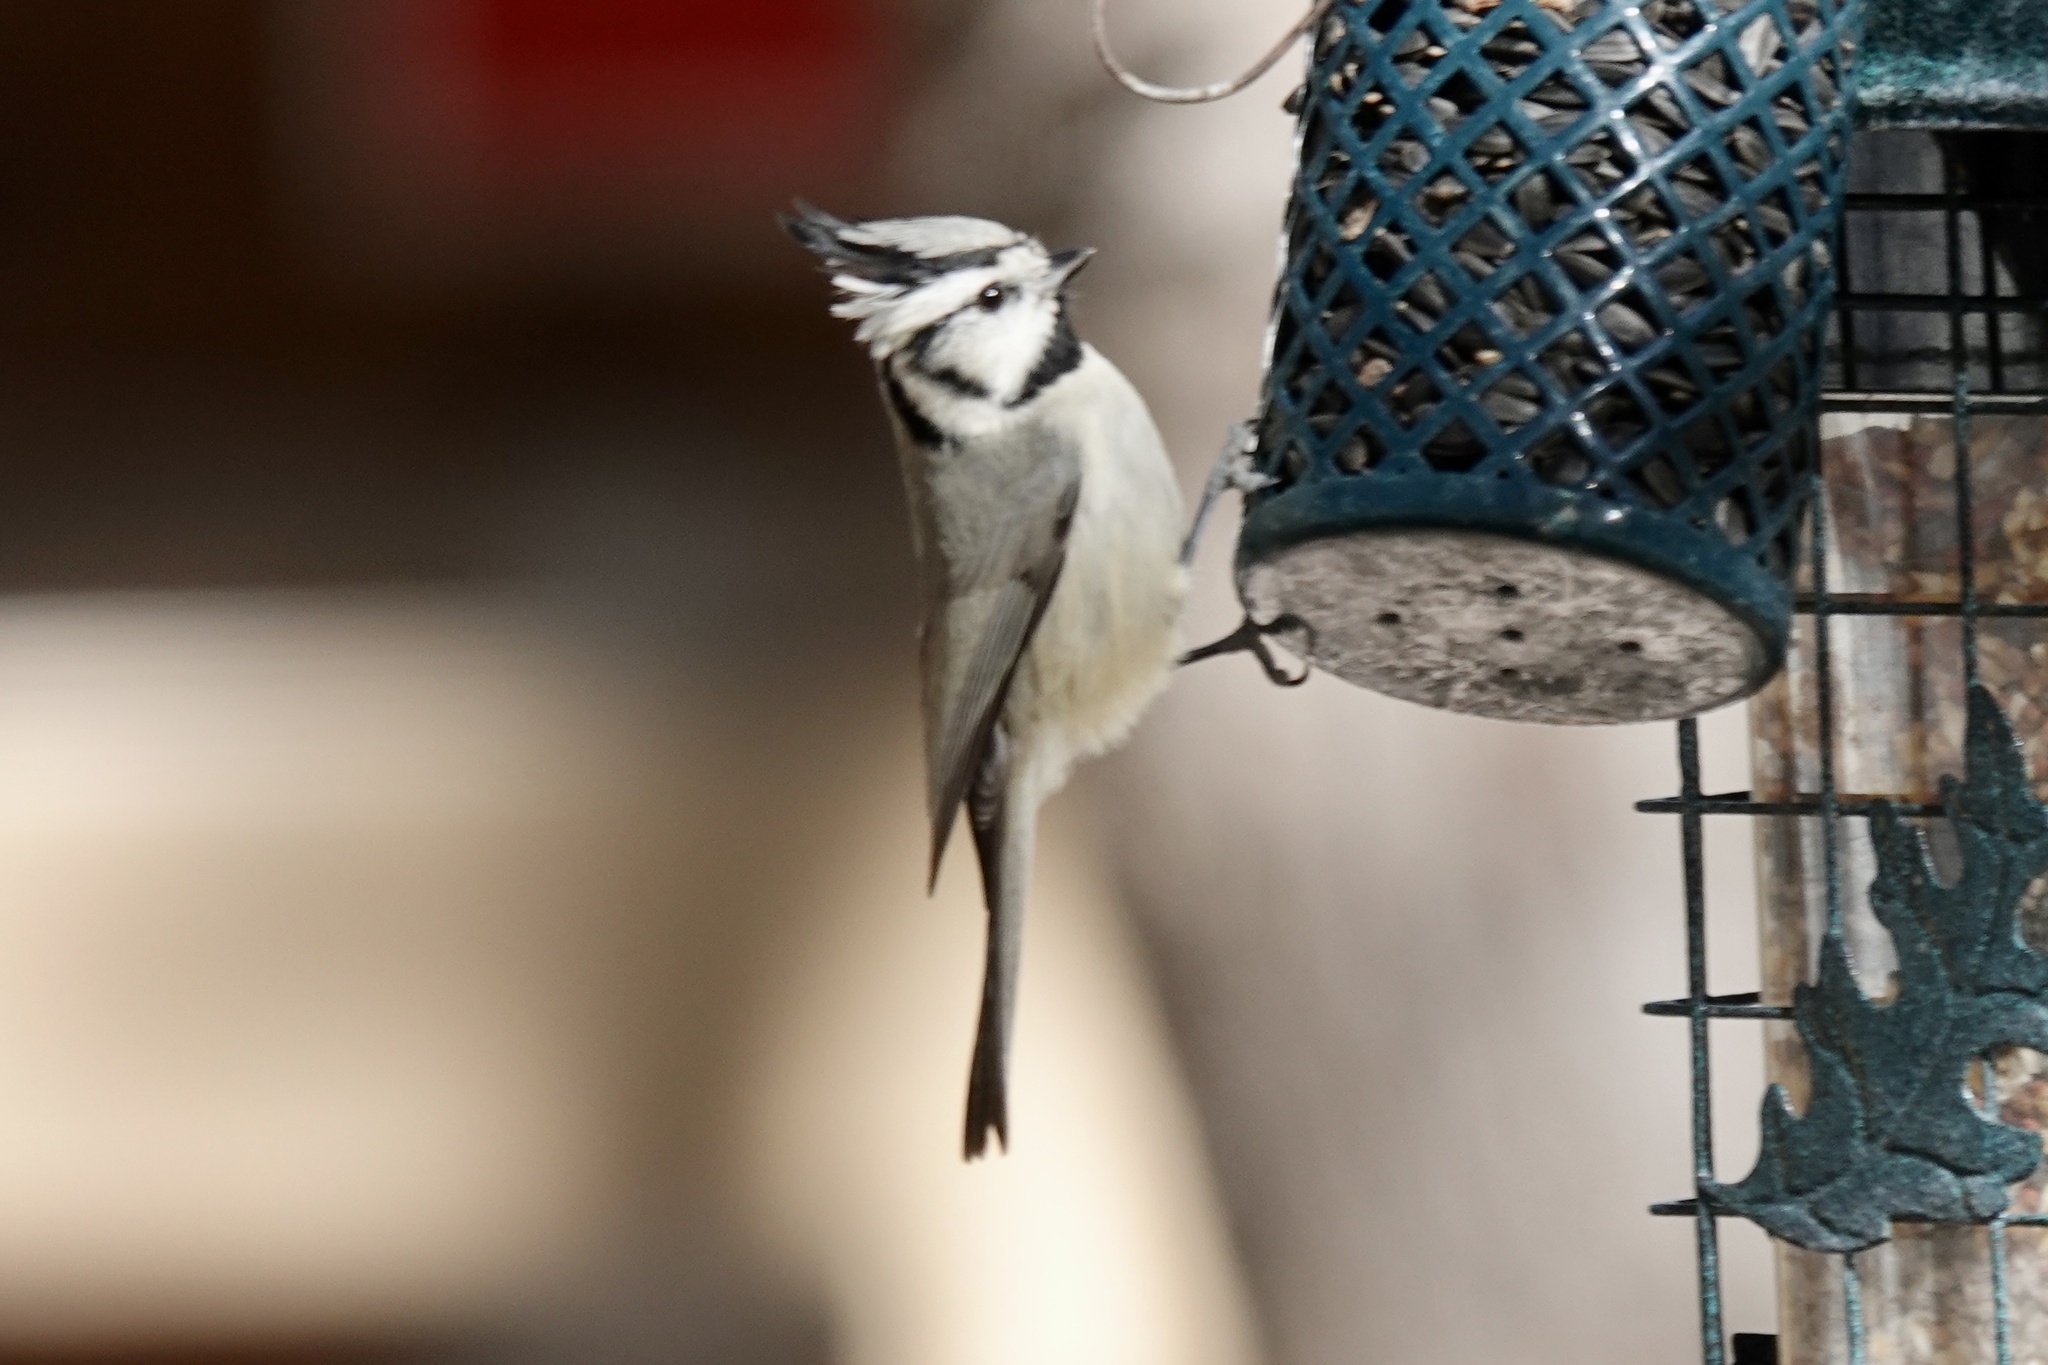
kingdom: Animalia
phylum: Chordata
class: Aves
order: Passeriformes
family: Paridae
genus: Baeolophus
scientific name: Baeolophus wollweberi
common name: Bridled titmouse
